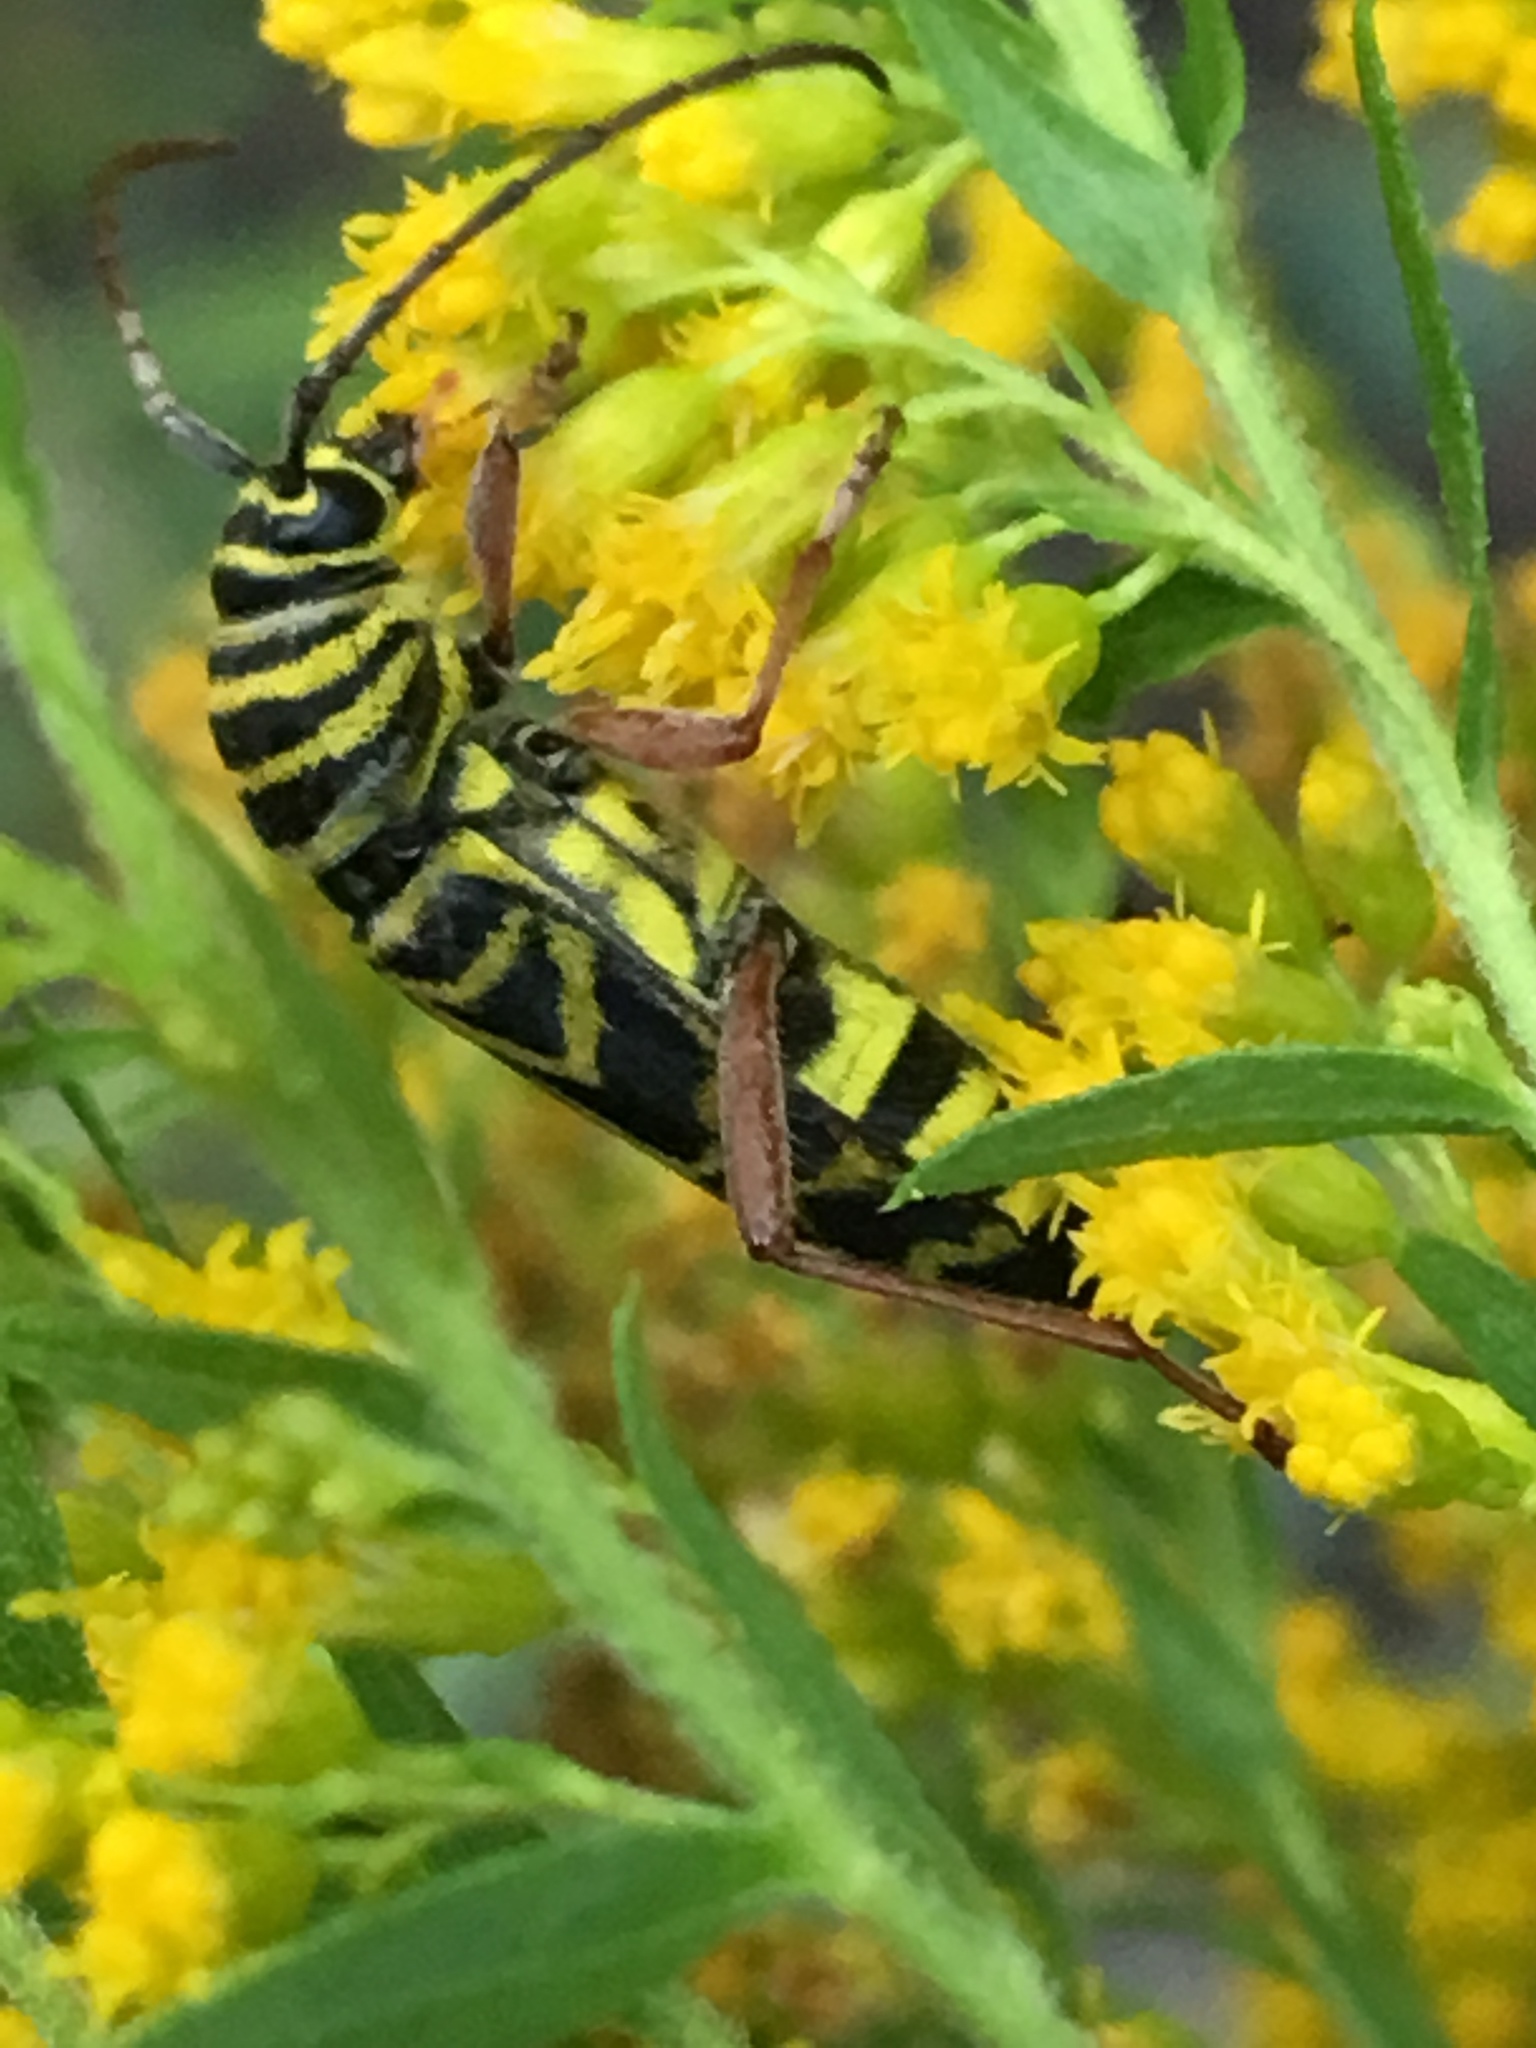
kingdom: Animalia
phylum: Arthropoda
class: Insecta
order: Coleoptera
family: Cerambycidae
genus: Megacyllene
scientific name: Megacyllene robiniae
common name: Locust borer
